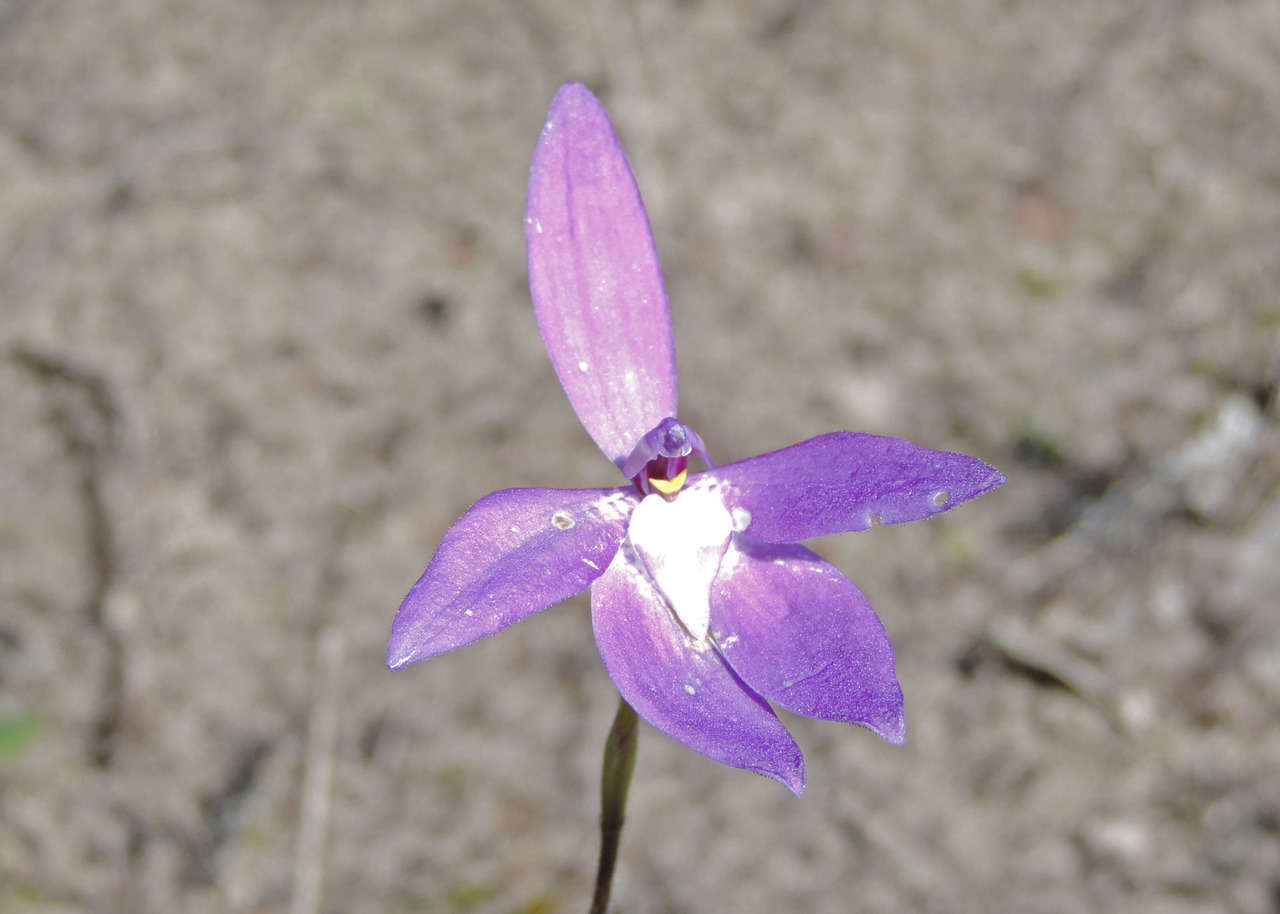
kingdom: Plantae
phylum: Tracheophyta
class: Liliopsida
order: Asparagales
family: Orchidaceae
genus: Caladenia
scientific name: Caladenia major
